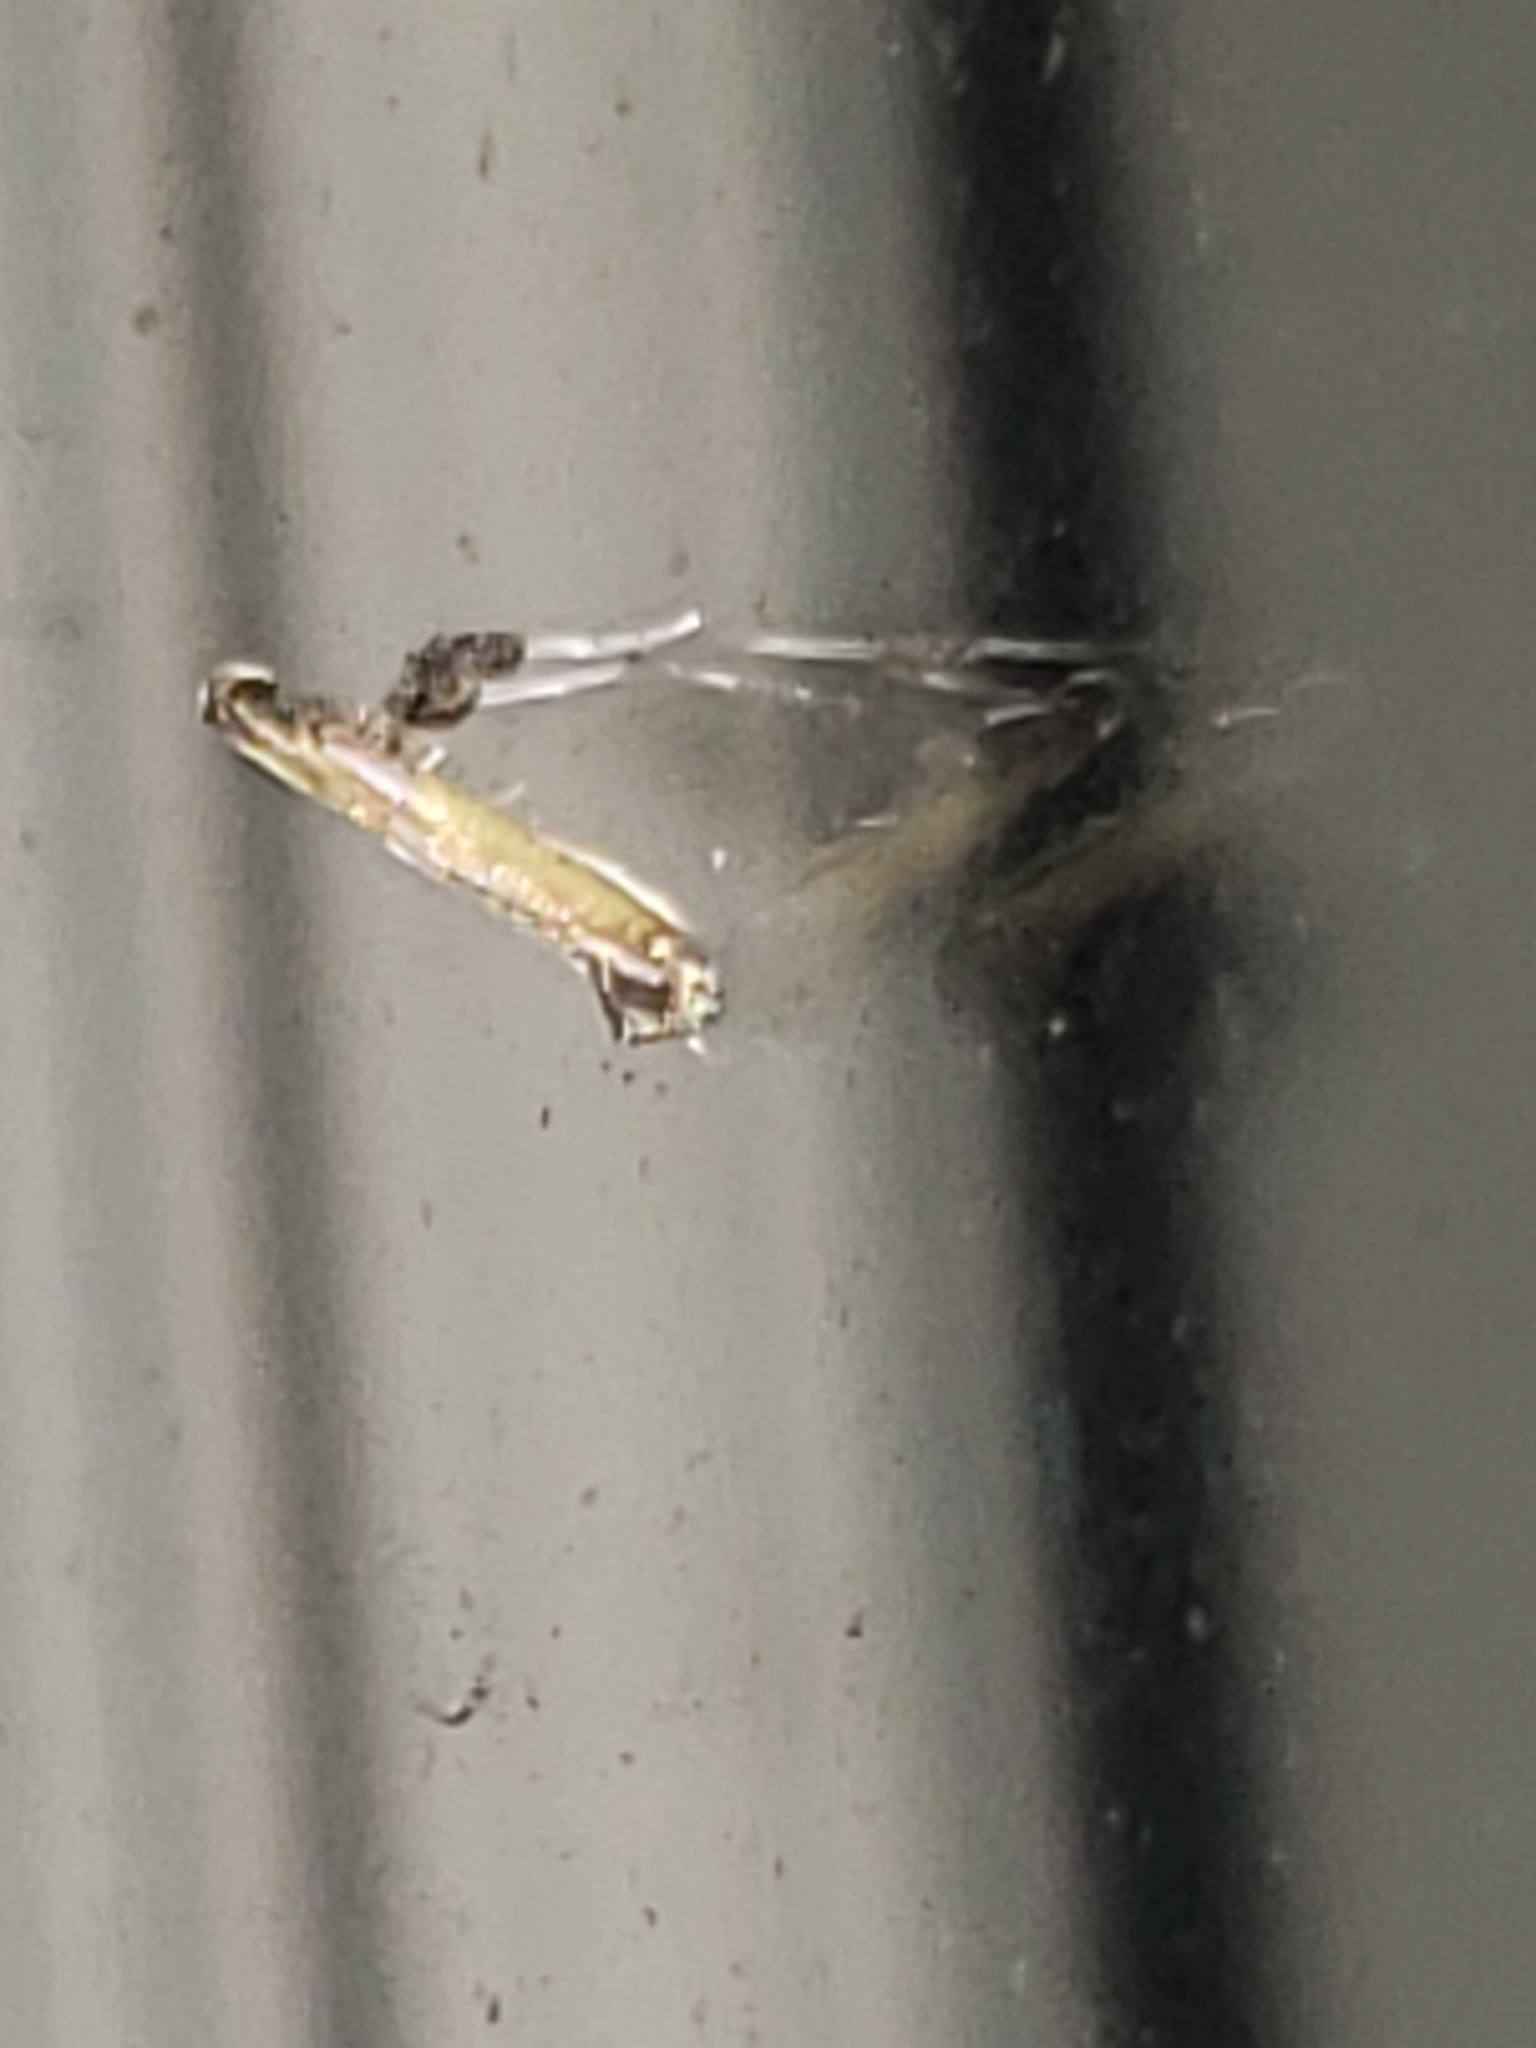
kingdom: Animalia
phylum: Arthropoda
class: Insecta
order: Lepidoptera
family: Gracillariidae
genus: Caloptilia
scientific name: Caloptilia azaleella
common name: Azalea leafminer
